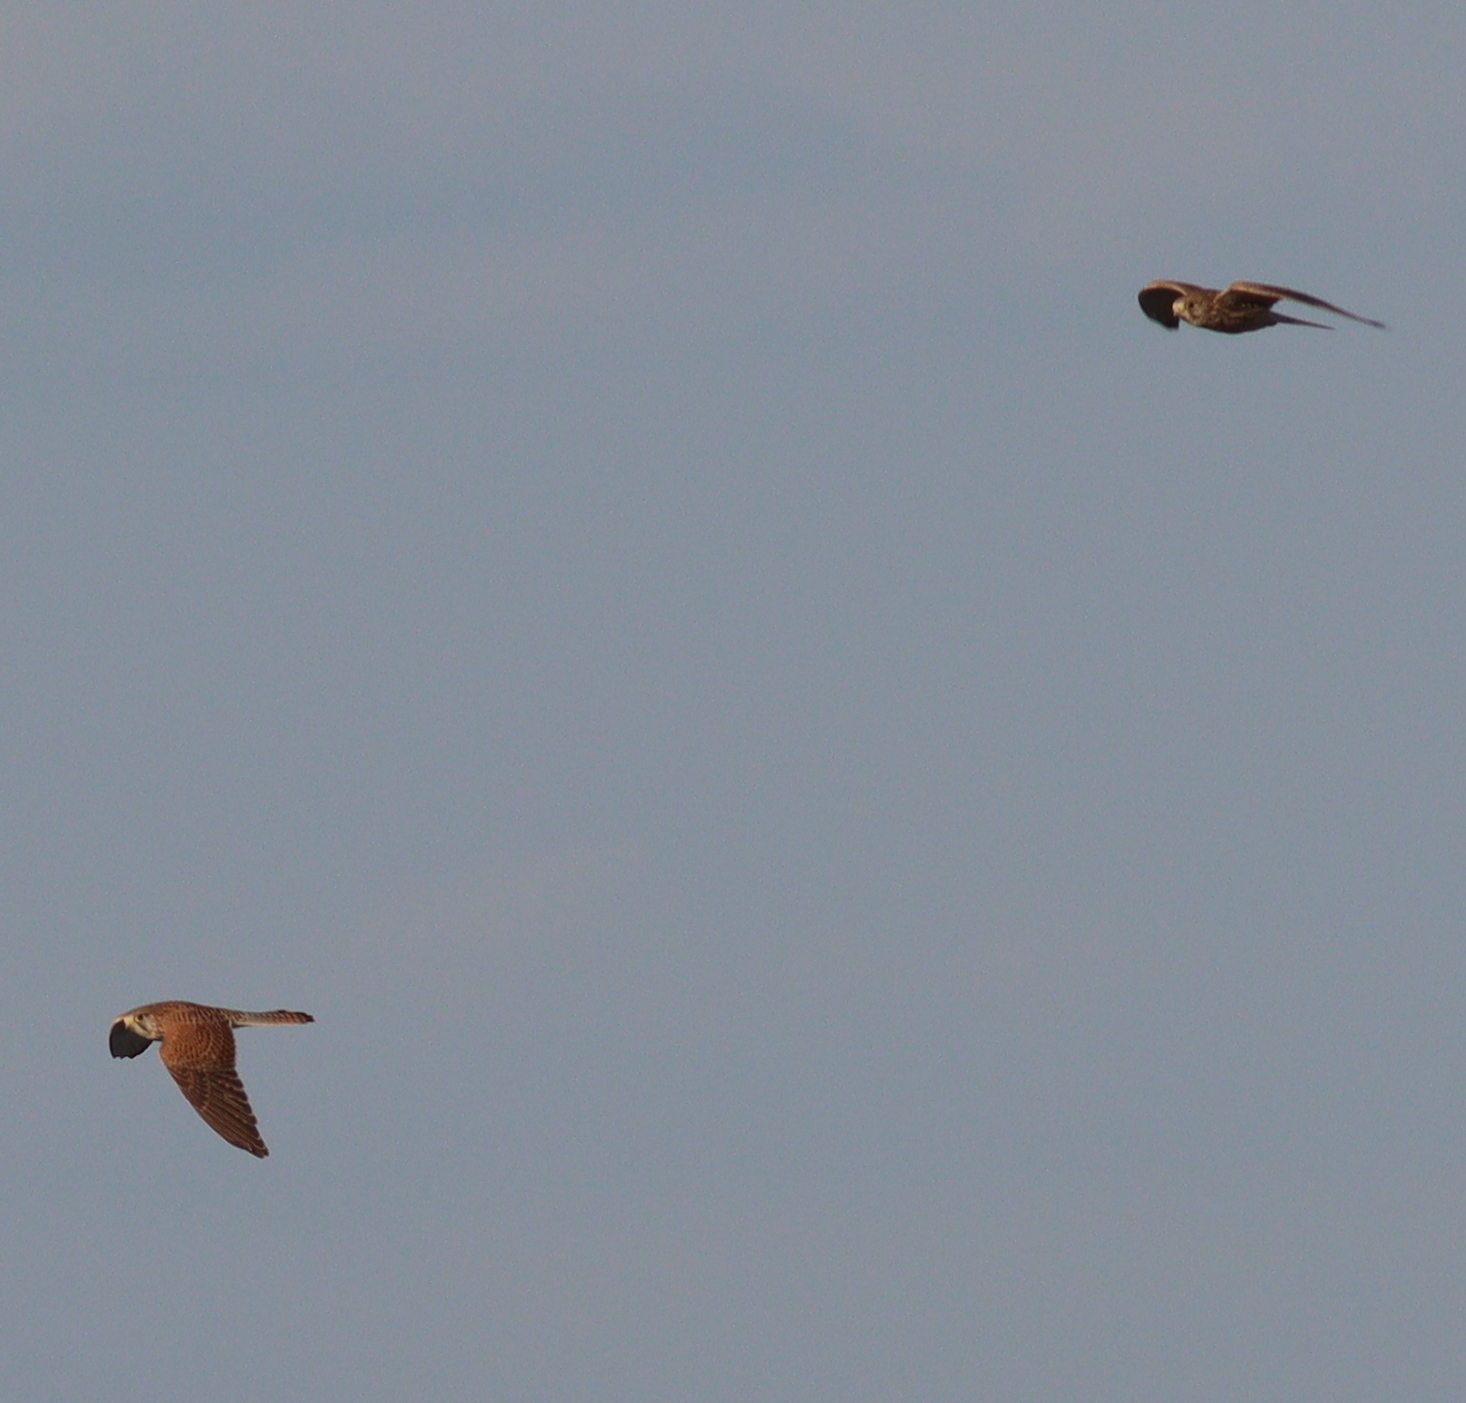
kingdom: Animalia
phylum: Chordata
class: Aves
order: Falconiformes
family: Falconidae
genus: Falco
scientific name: Falco tinnunculus
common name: Common kestrel
